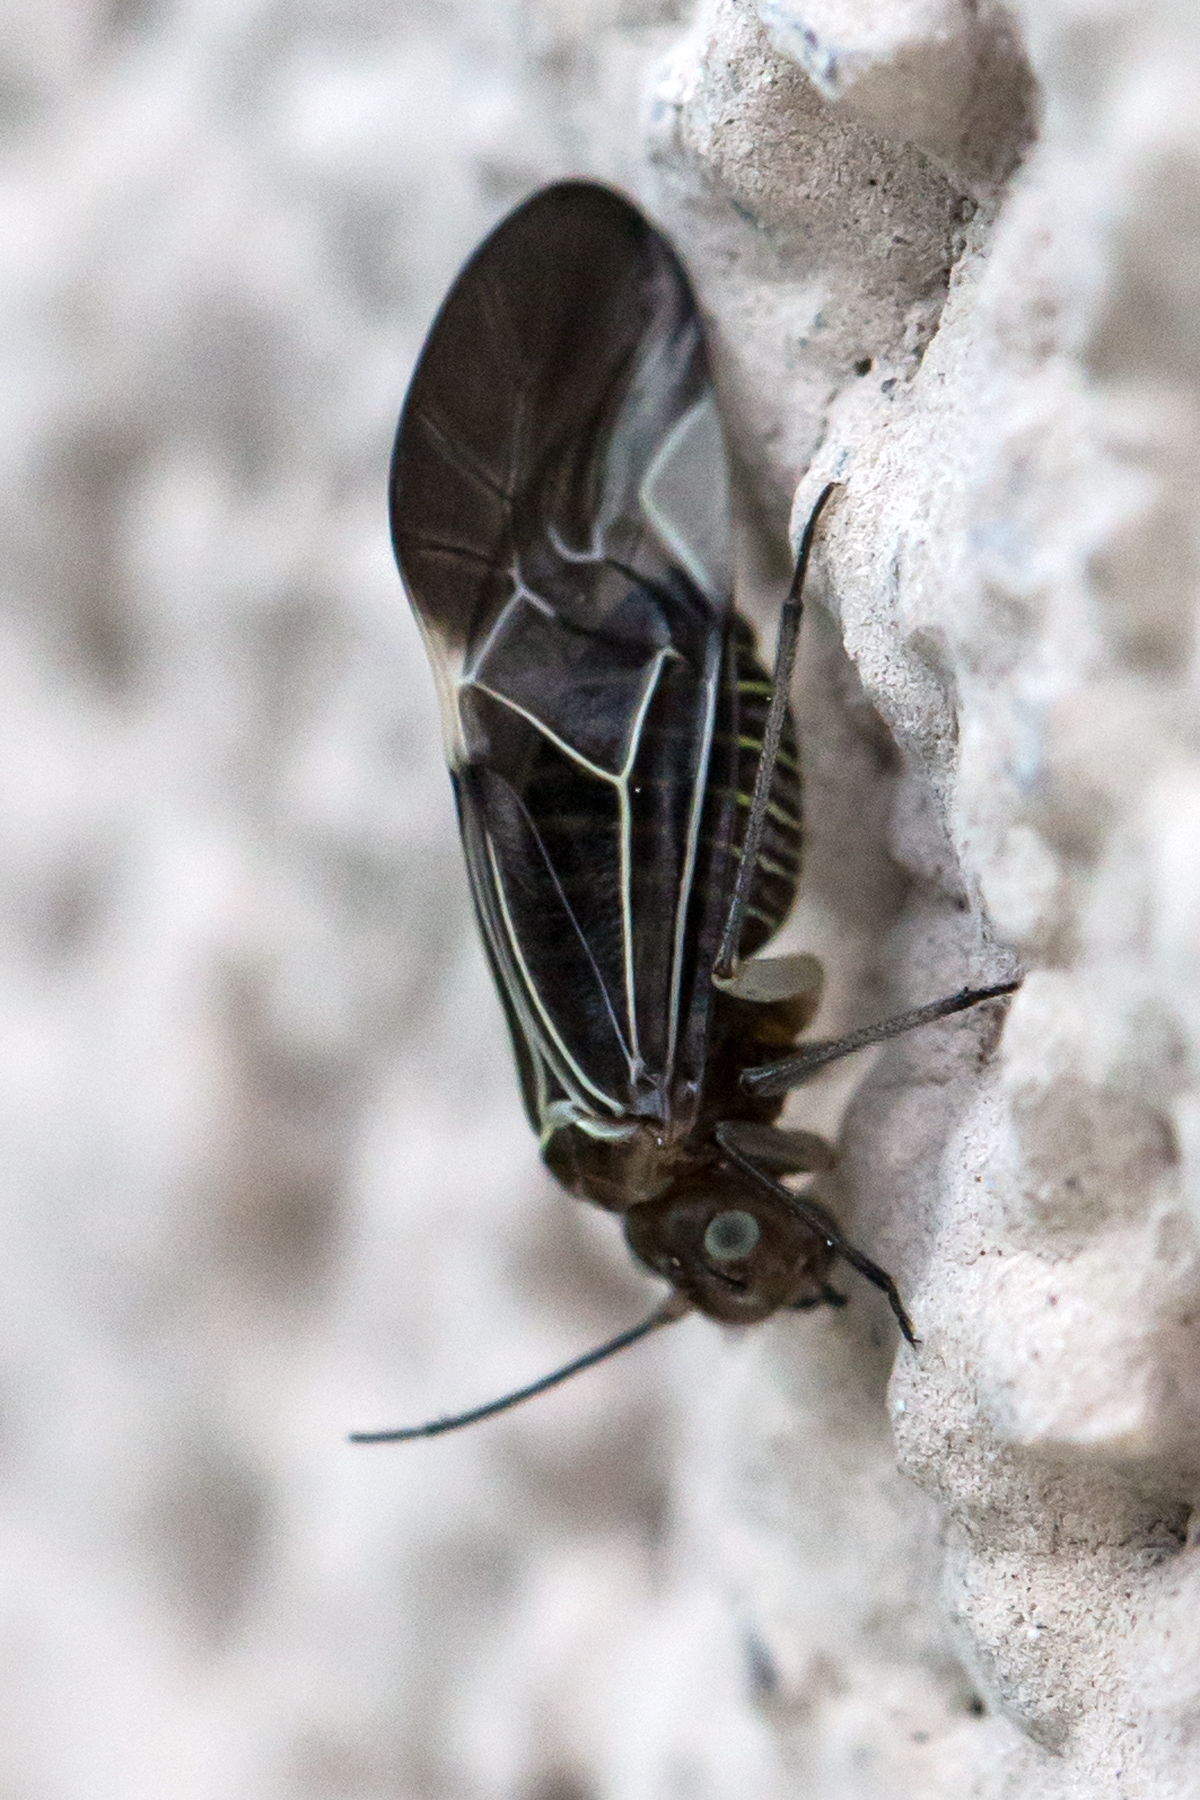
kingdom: Animalia
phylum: Arthropoda
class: Insecta
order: Psocodea
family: Psocidae
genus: Cerastipsocus
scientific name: Cerastipsocus venosus
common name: Tree cattle
